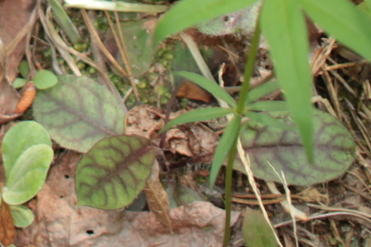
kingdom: Plantae
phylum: Tracheophyta
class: Magnoliopsida
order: Asterales
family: Asteraceae
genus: Hieracium
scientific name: Hieracium venosum
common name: Rattlesnake hawkweed
